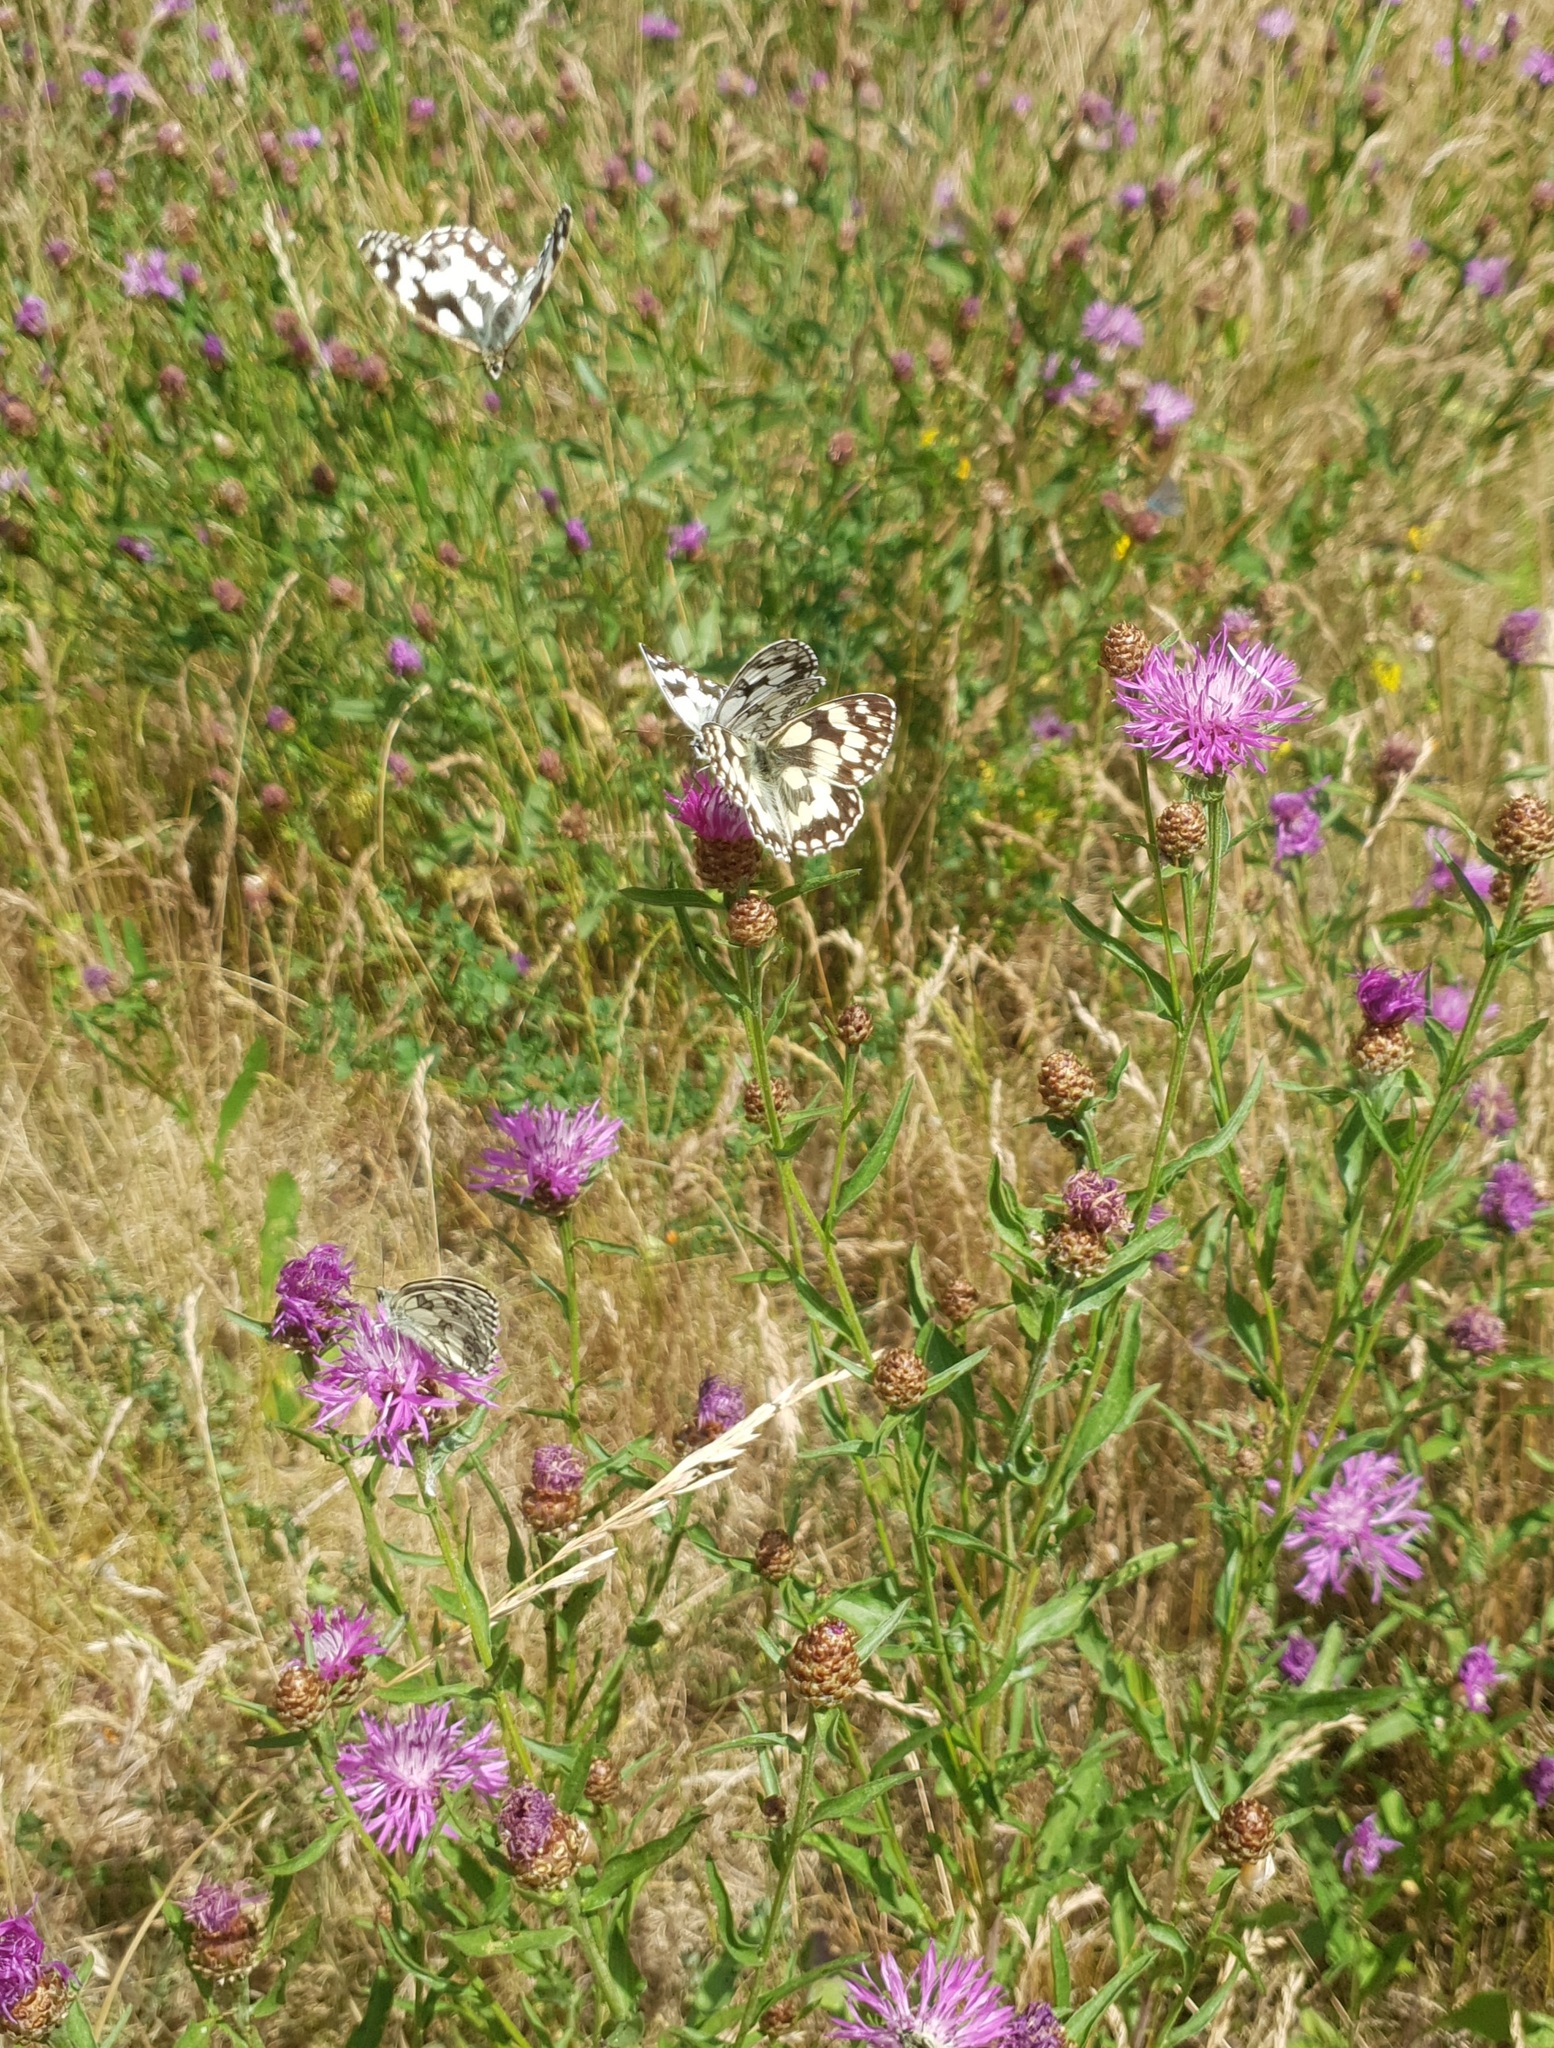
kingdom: Animalia
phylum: Arthropoda
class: Insecta
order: Lepidoptera
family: Nymphalidae
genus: Melanargia
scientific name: Melanargia galathea
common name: Marbled white
